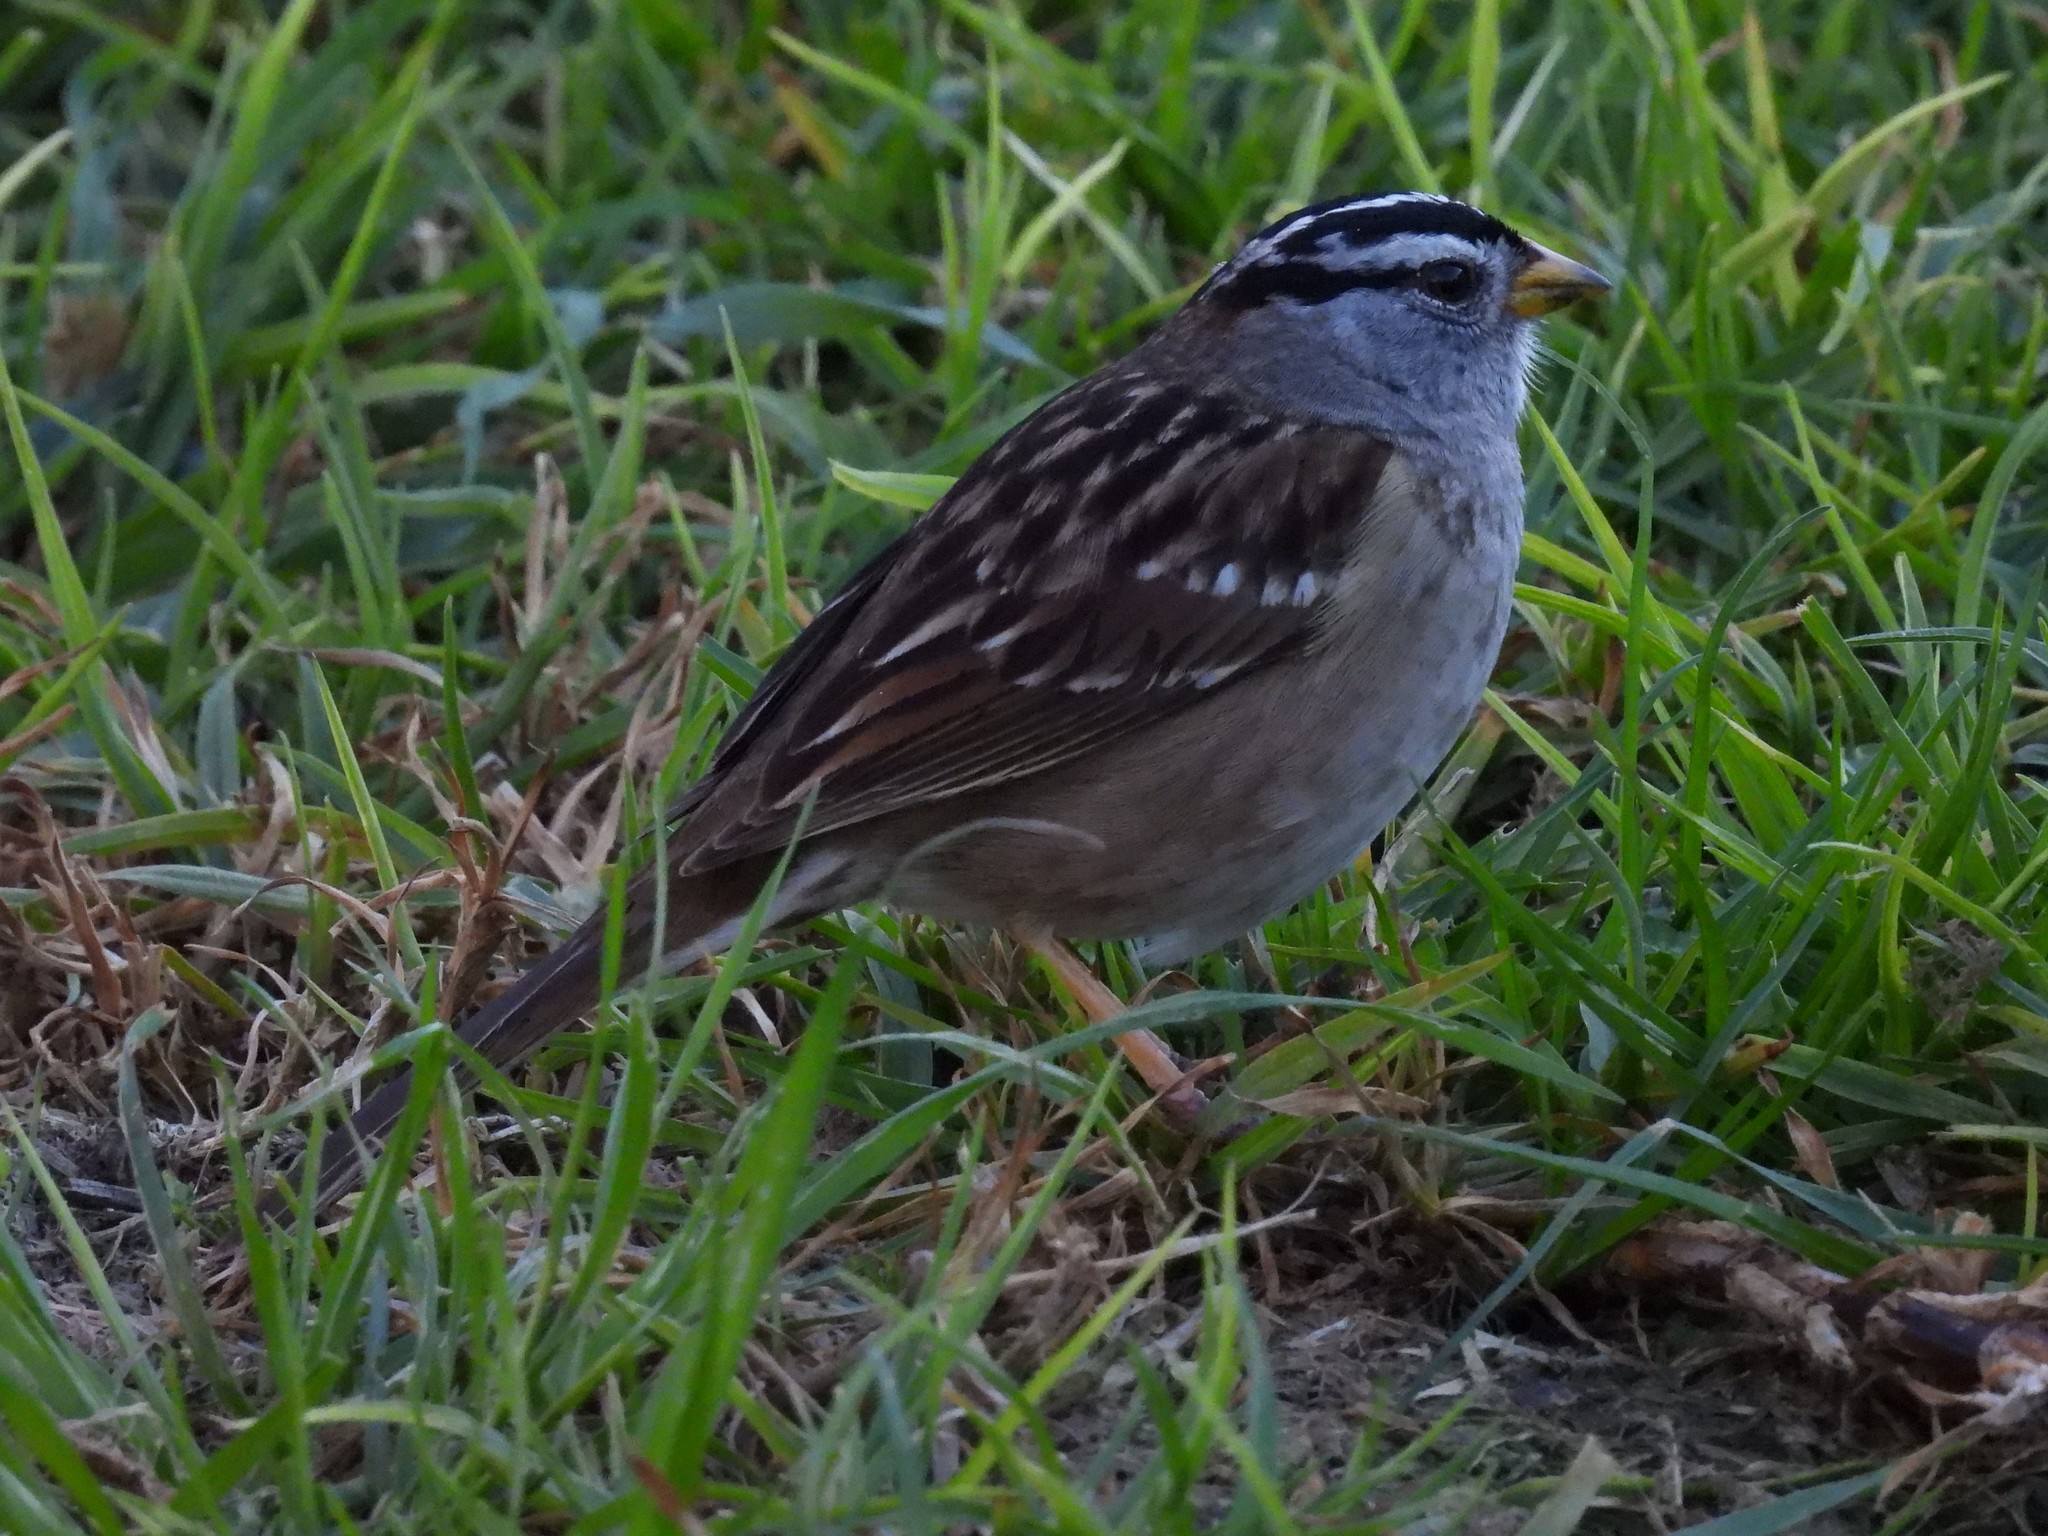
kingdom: Animalia
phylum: Chordata
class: Aves
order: Passeriformes
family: Passerellidae
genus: Zonotrichia
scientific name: Zonotrichia leucophrys
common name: White-crowned sparrow
